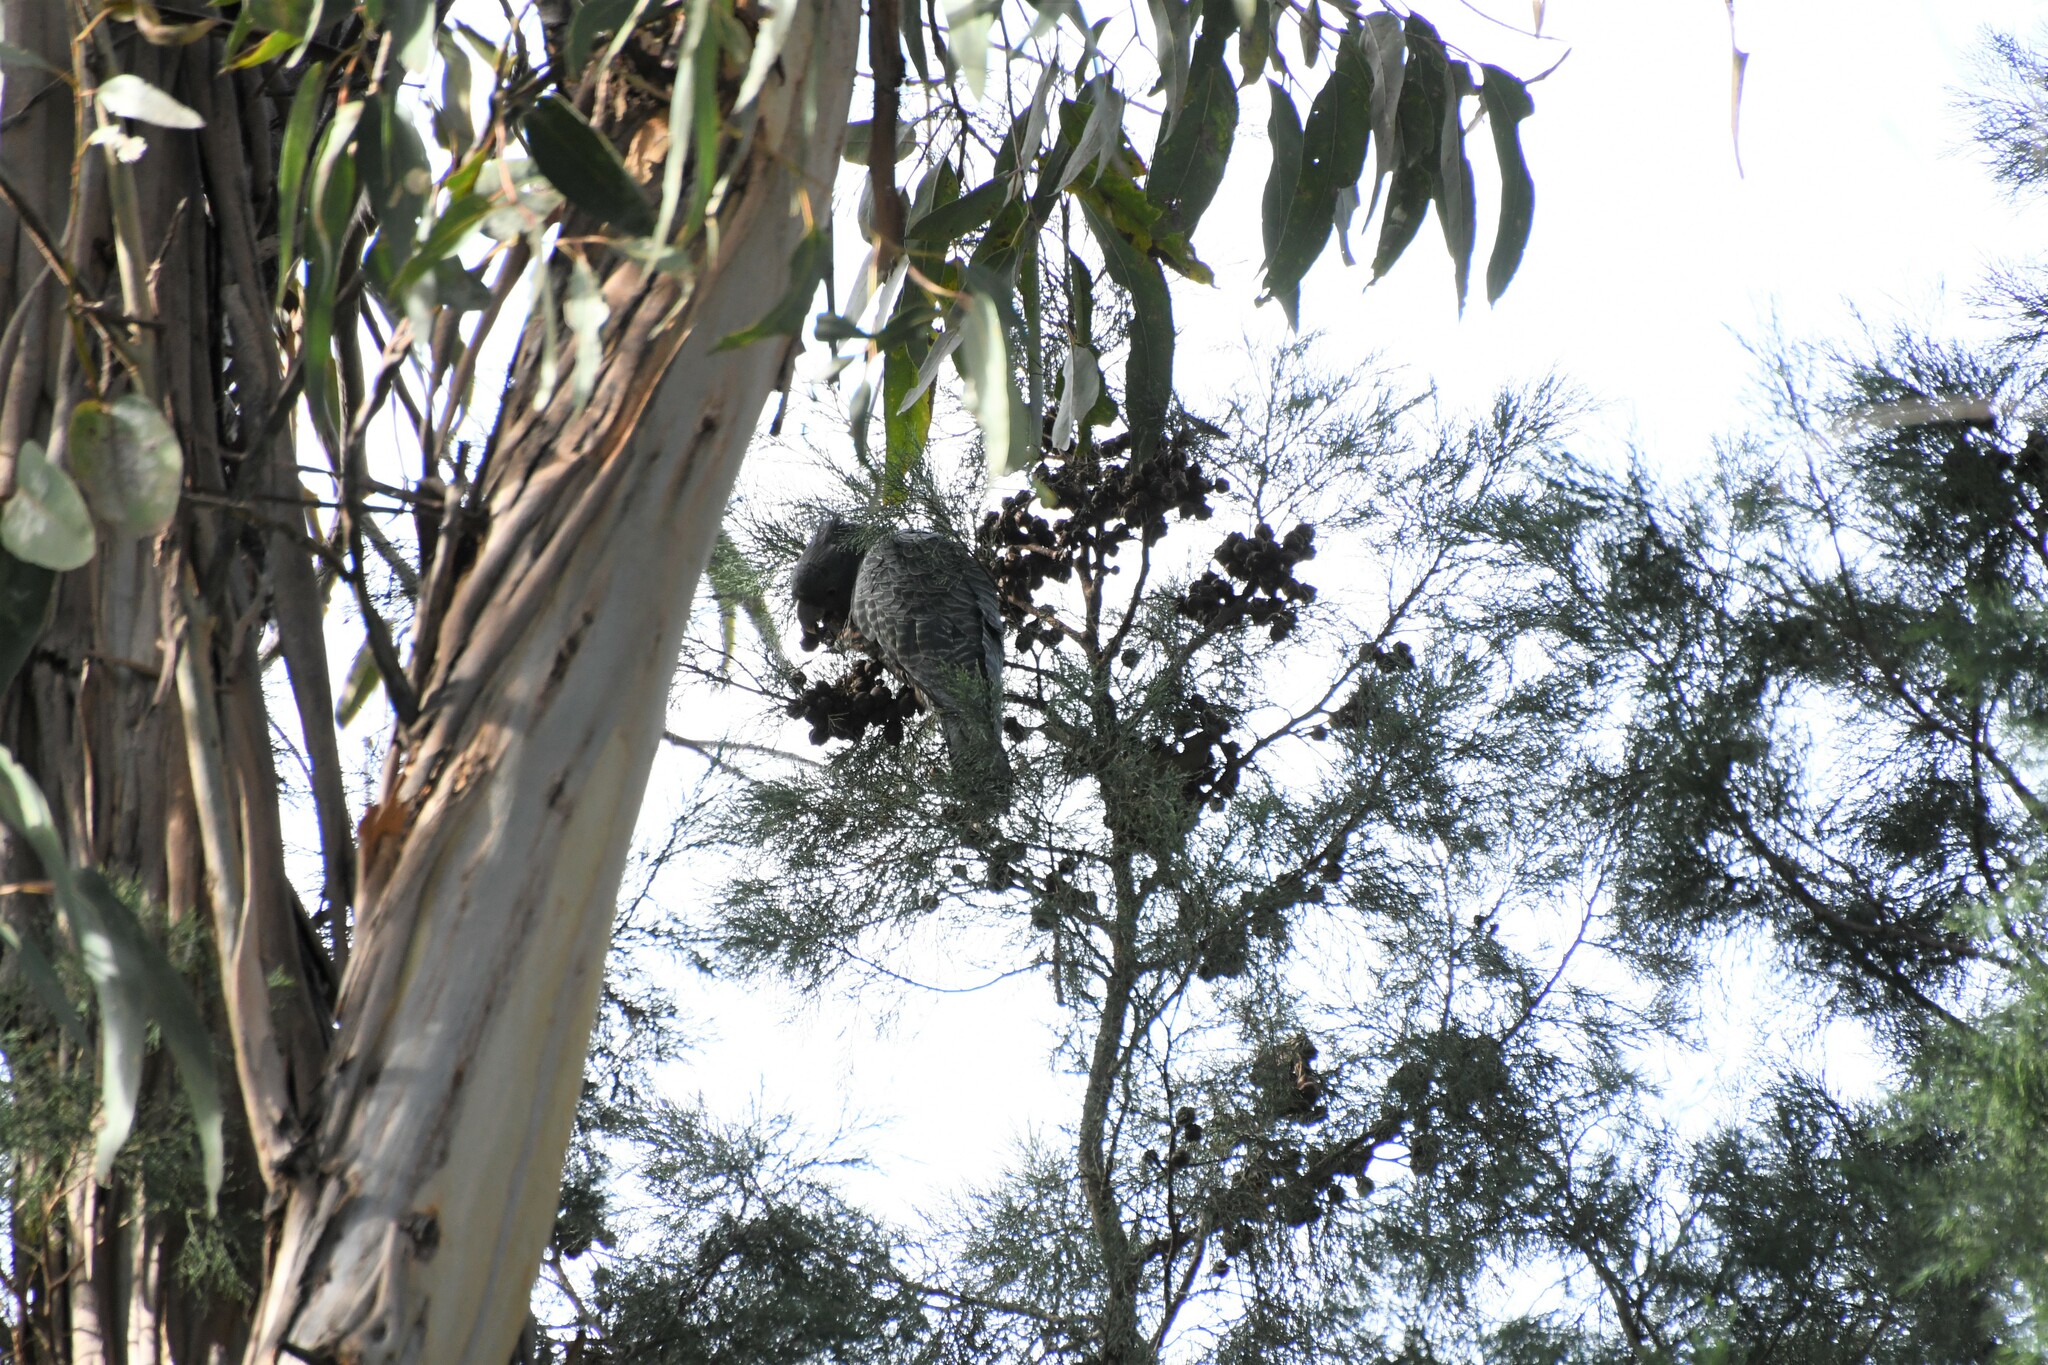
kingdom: Animalia
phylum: Chordata
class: Aves
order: Psittaciformes
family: Psittacidae
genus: Callocephalon
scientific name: Callocephalon fimbriatum
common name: Gang-gang cockatoo
